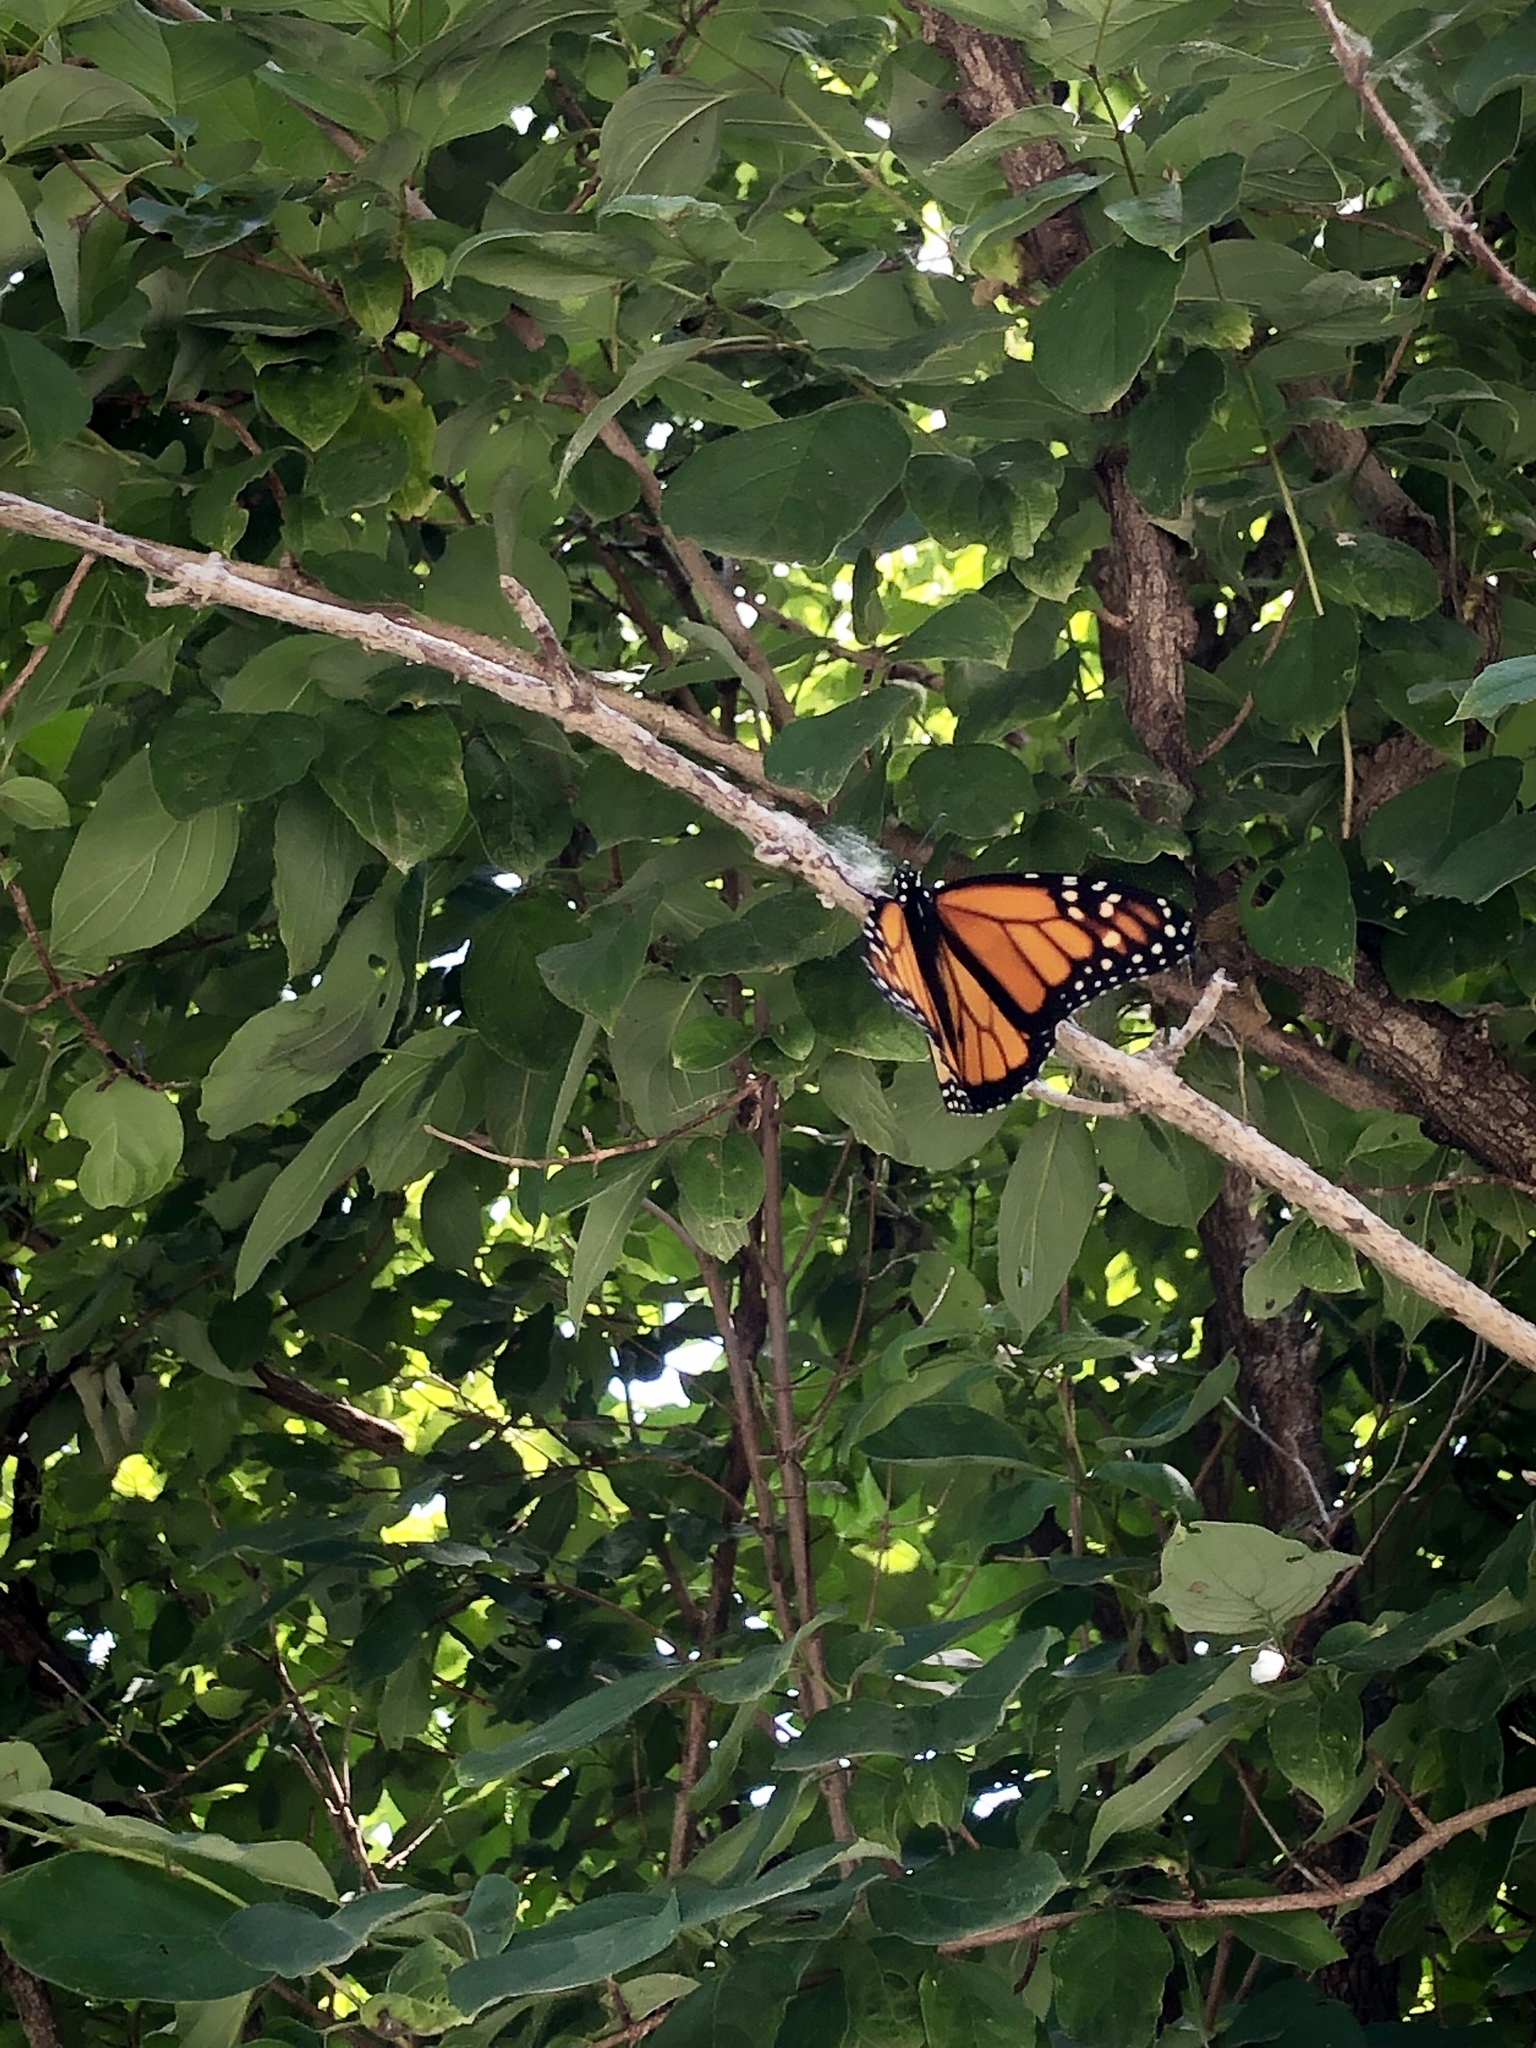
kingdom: Animalia
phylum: Arthropoda
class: Insecta
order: Lepidoptera
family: Nymphalidae
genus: Danaus
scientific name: Danaus plexippus
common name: Monarch
